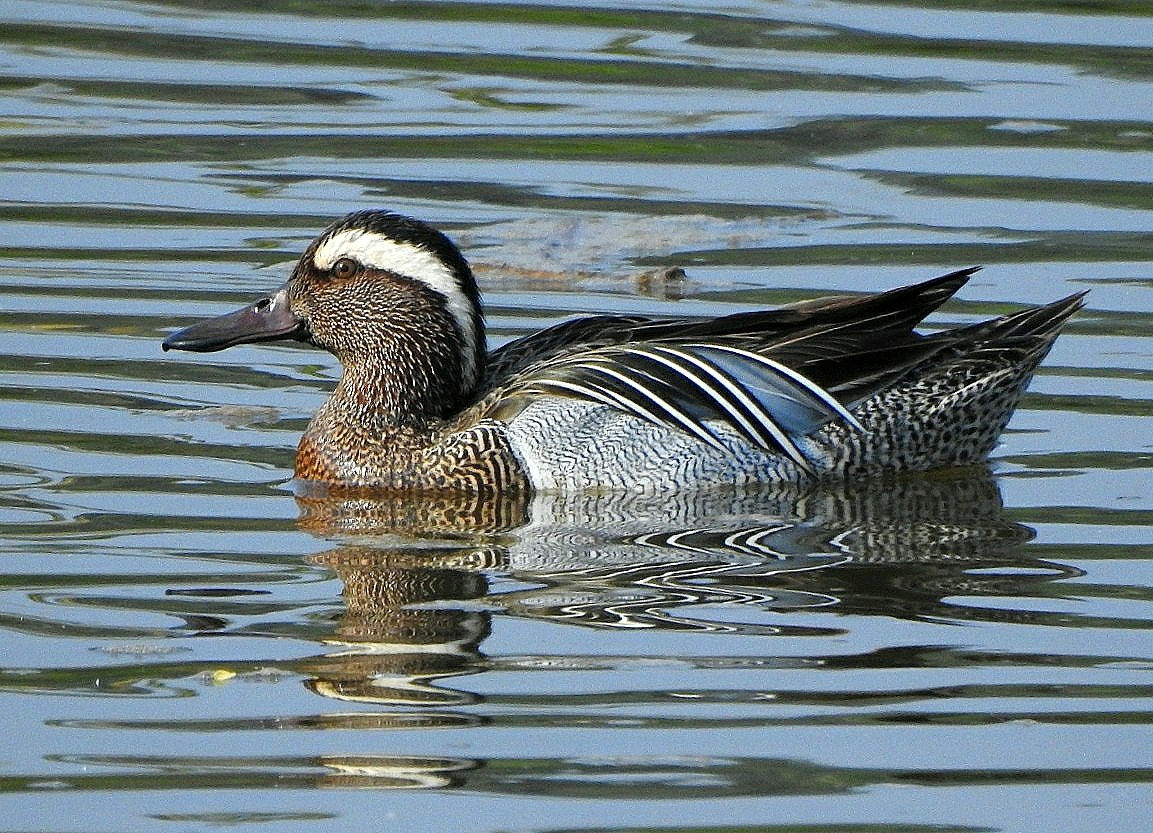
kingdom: Animalia
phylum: Chordata
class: Aves
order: Anseriformes
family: Anatidae
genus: Spatula
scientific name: Spatula querquedula
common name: Garganey
